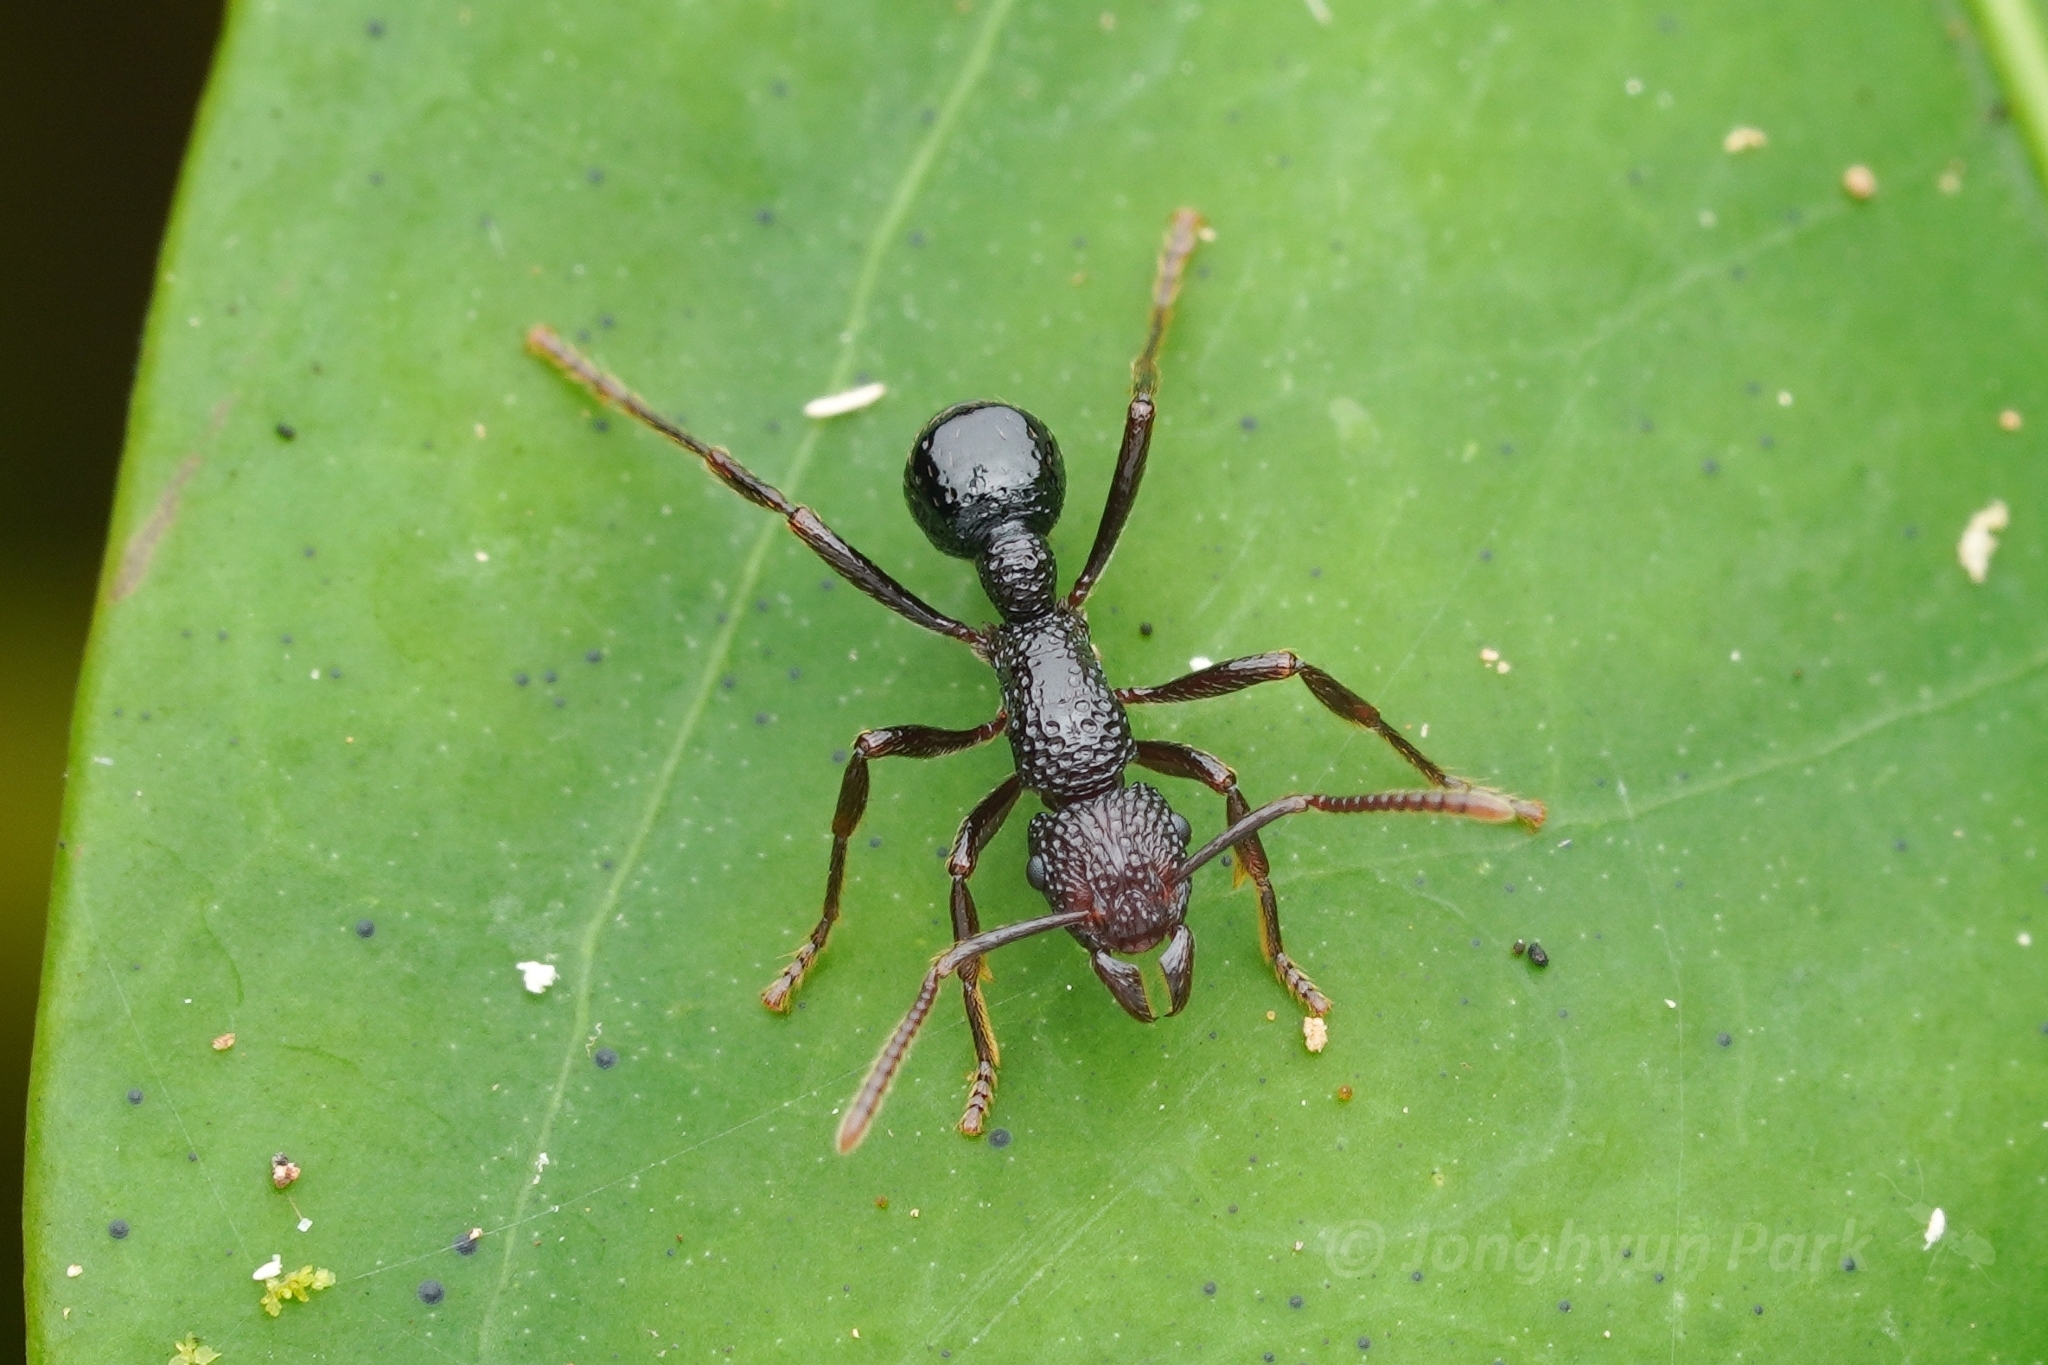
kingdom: Animalia
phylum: Arthropoda
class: Insecta
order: Hymenoptera
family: Formicidae
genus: Stictoponera
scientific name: Stictoponera
